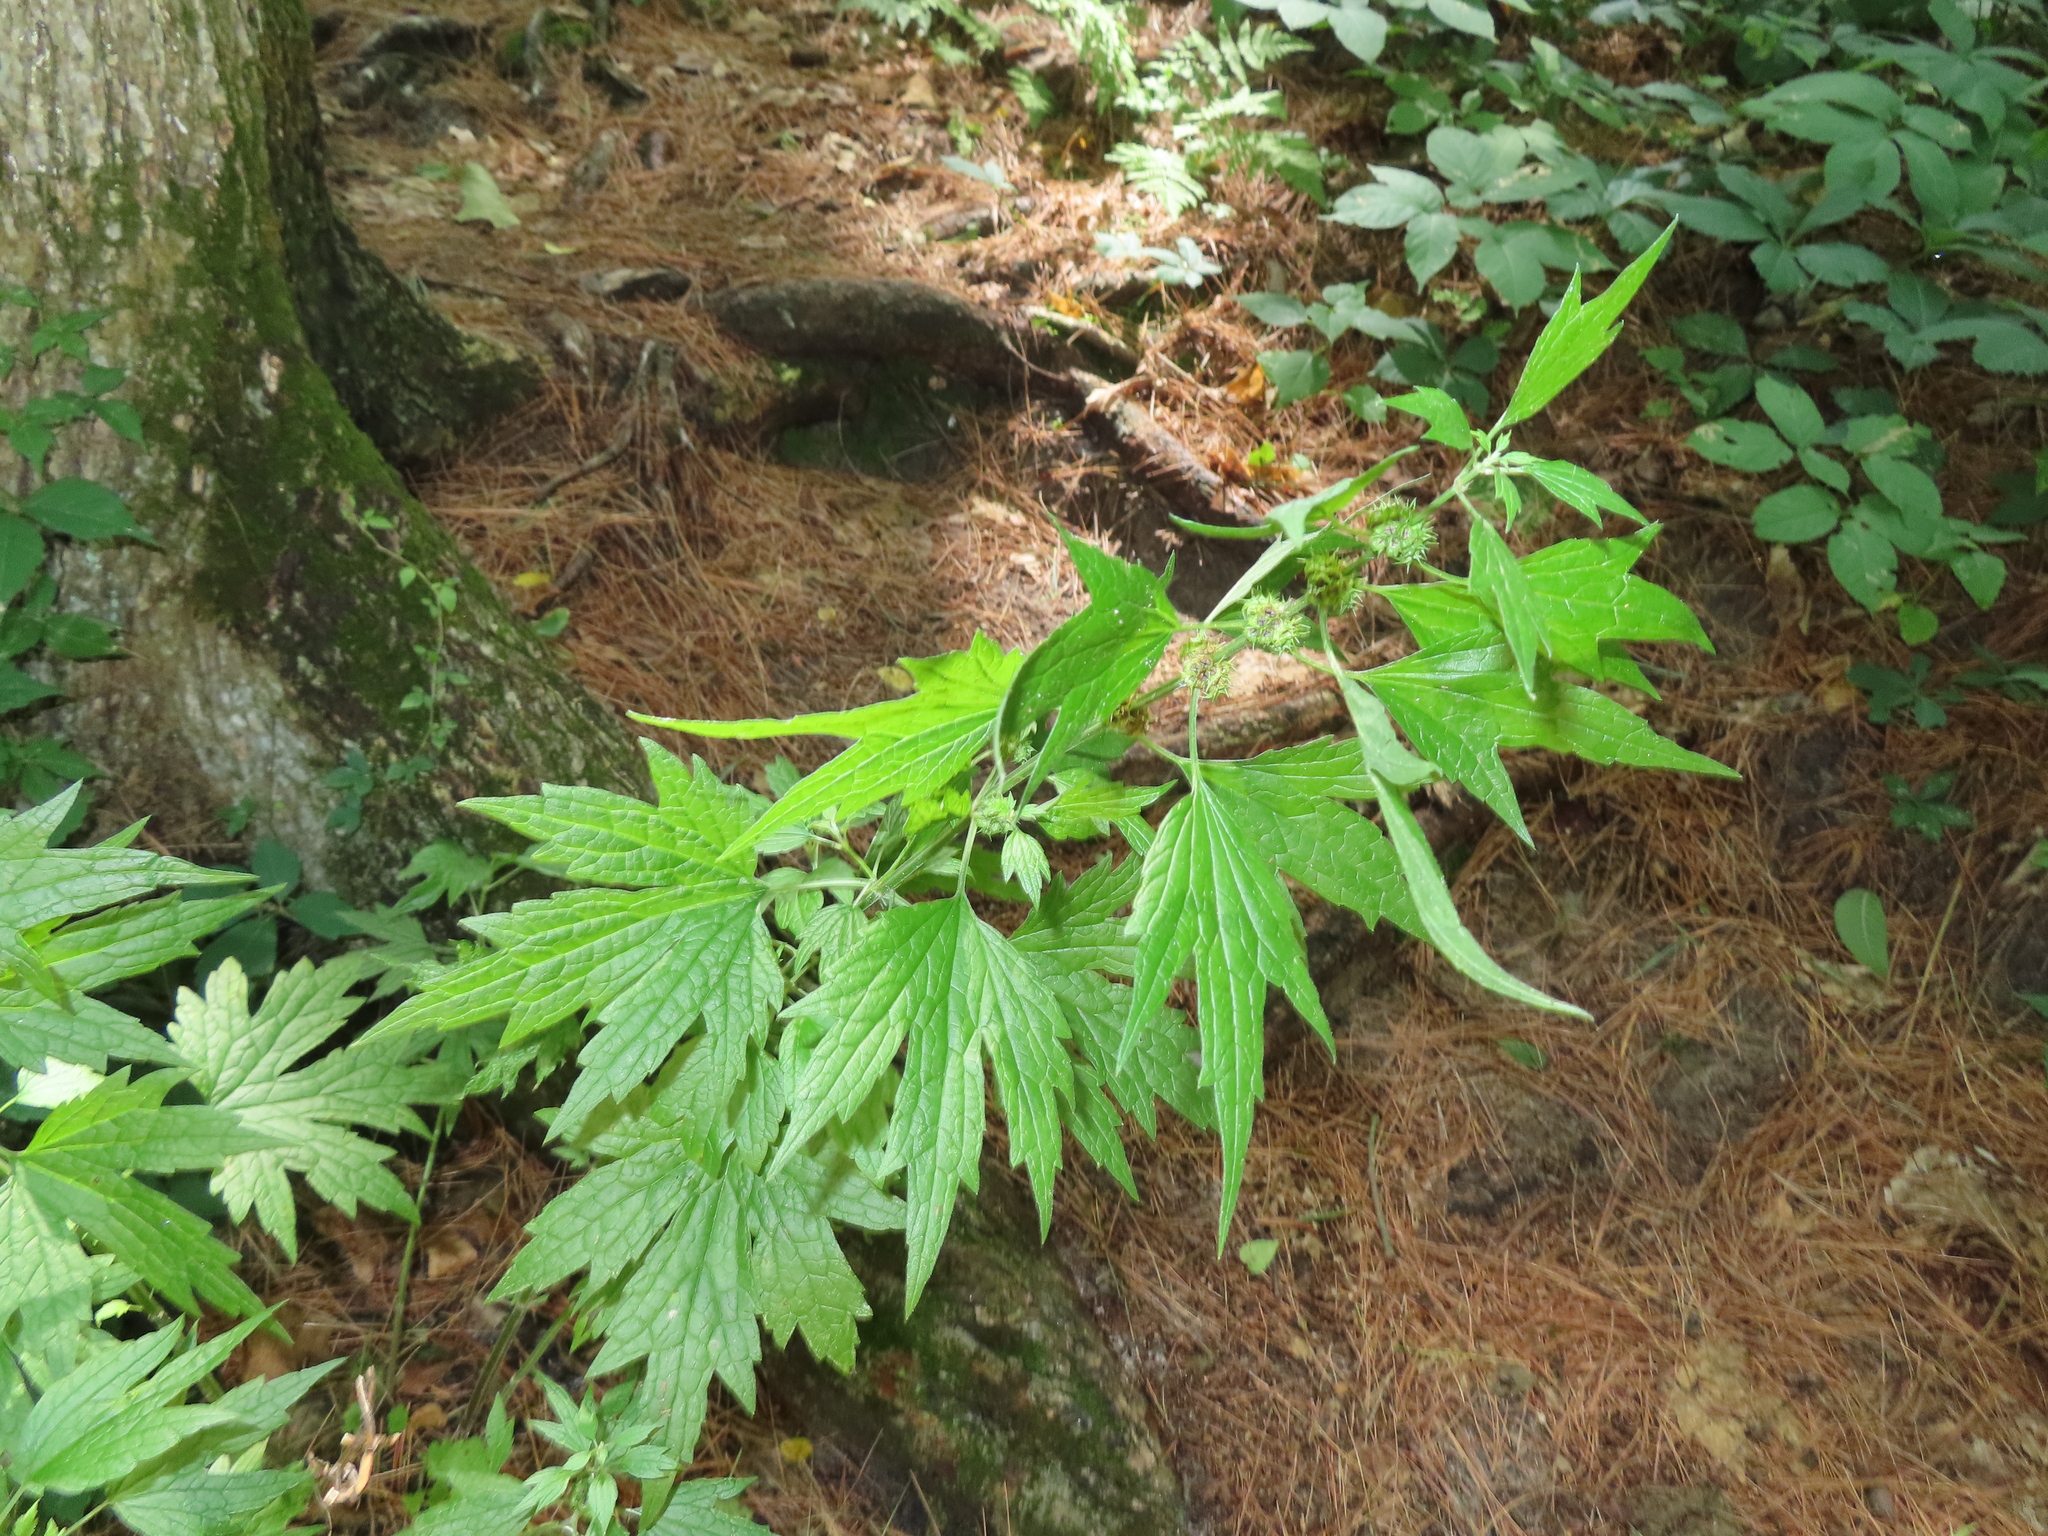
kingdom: Plantae
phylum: Tracheophyta
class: Magnoliopsida
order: Lamiales
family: Lamiaceae
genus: Leonurus
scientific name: Leonurus cardiaca
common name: Motherwort
